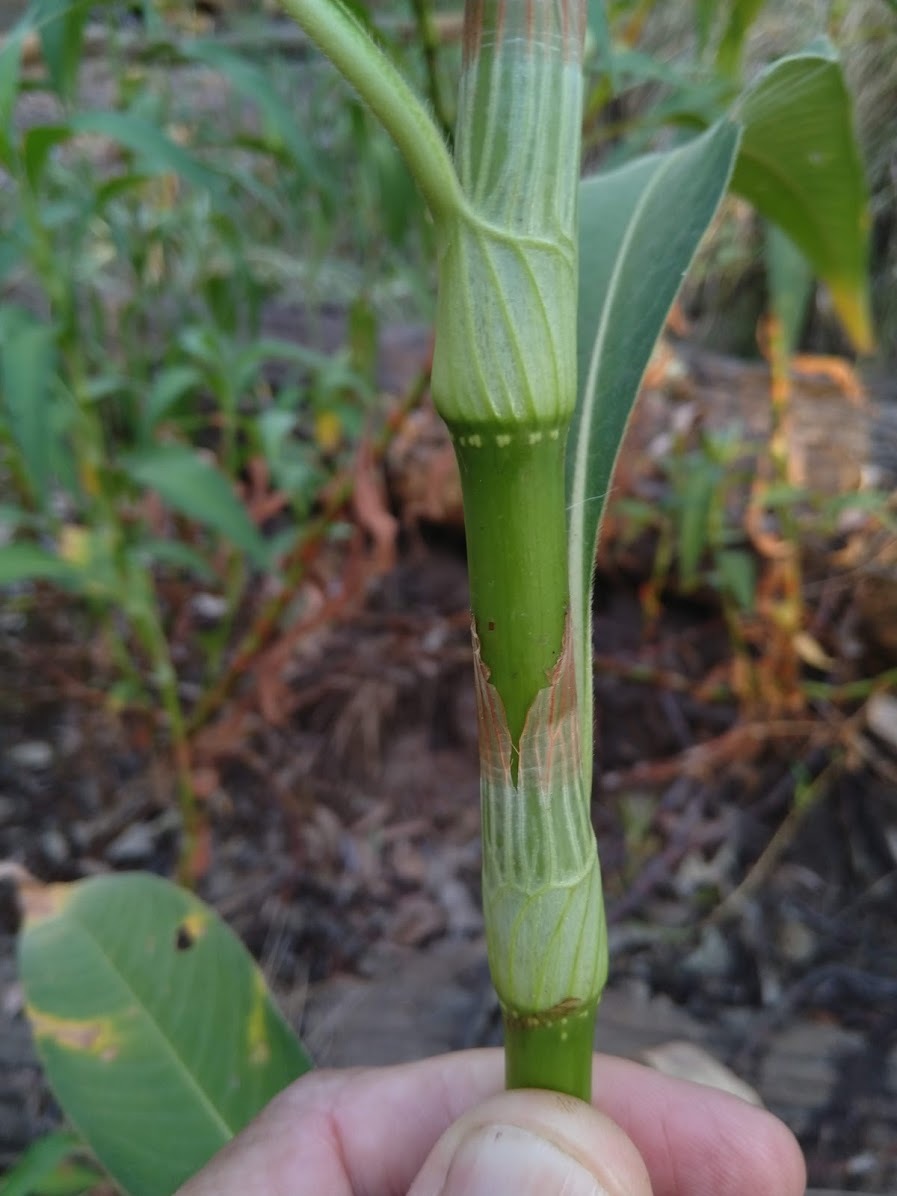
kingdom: Plantae
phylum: Tracheophyta
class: Magnoliopsida
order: Caryophyllales
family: Polygonaceae
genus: Persicaria
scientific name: Persicaria attenuata
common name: Hairy knotweed
